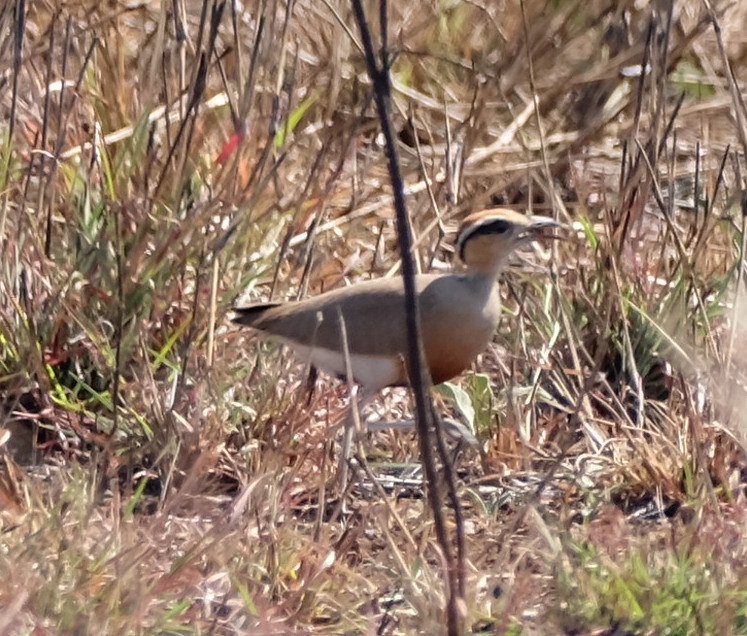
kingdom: Animalia
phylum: Chordata
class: Aves
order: Charadriiformes
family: Glareolidae
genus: Cursorius
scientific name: Cursorius temminckii
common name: Temminck's courser
